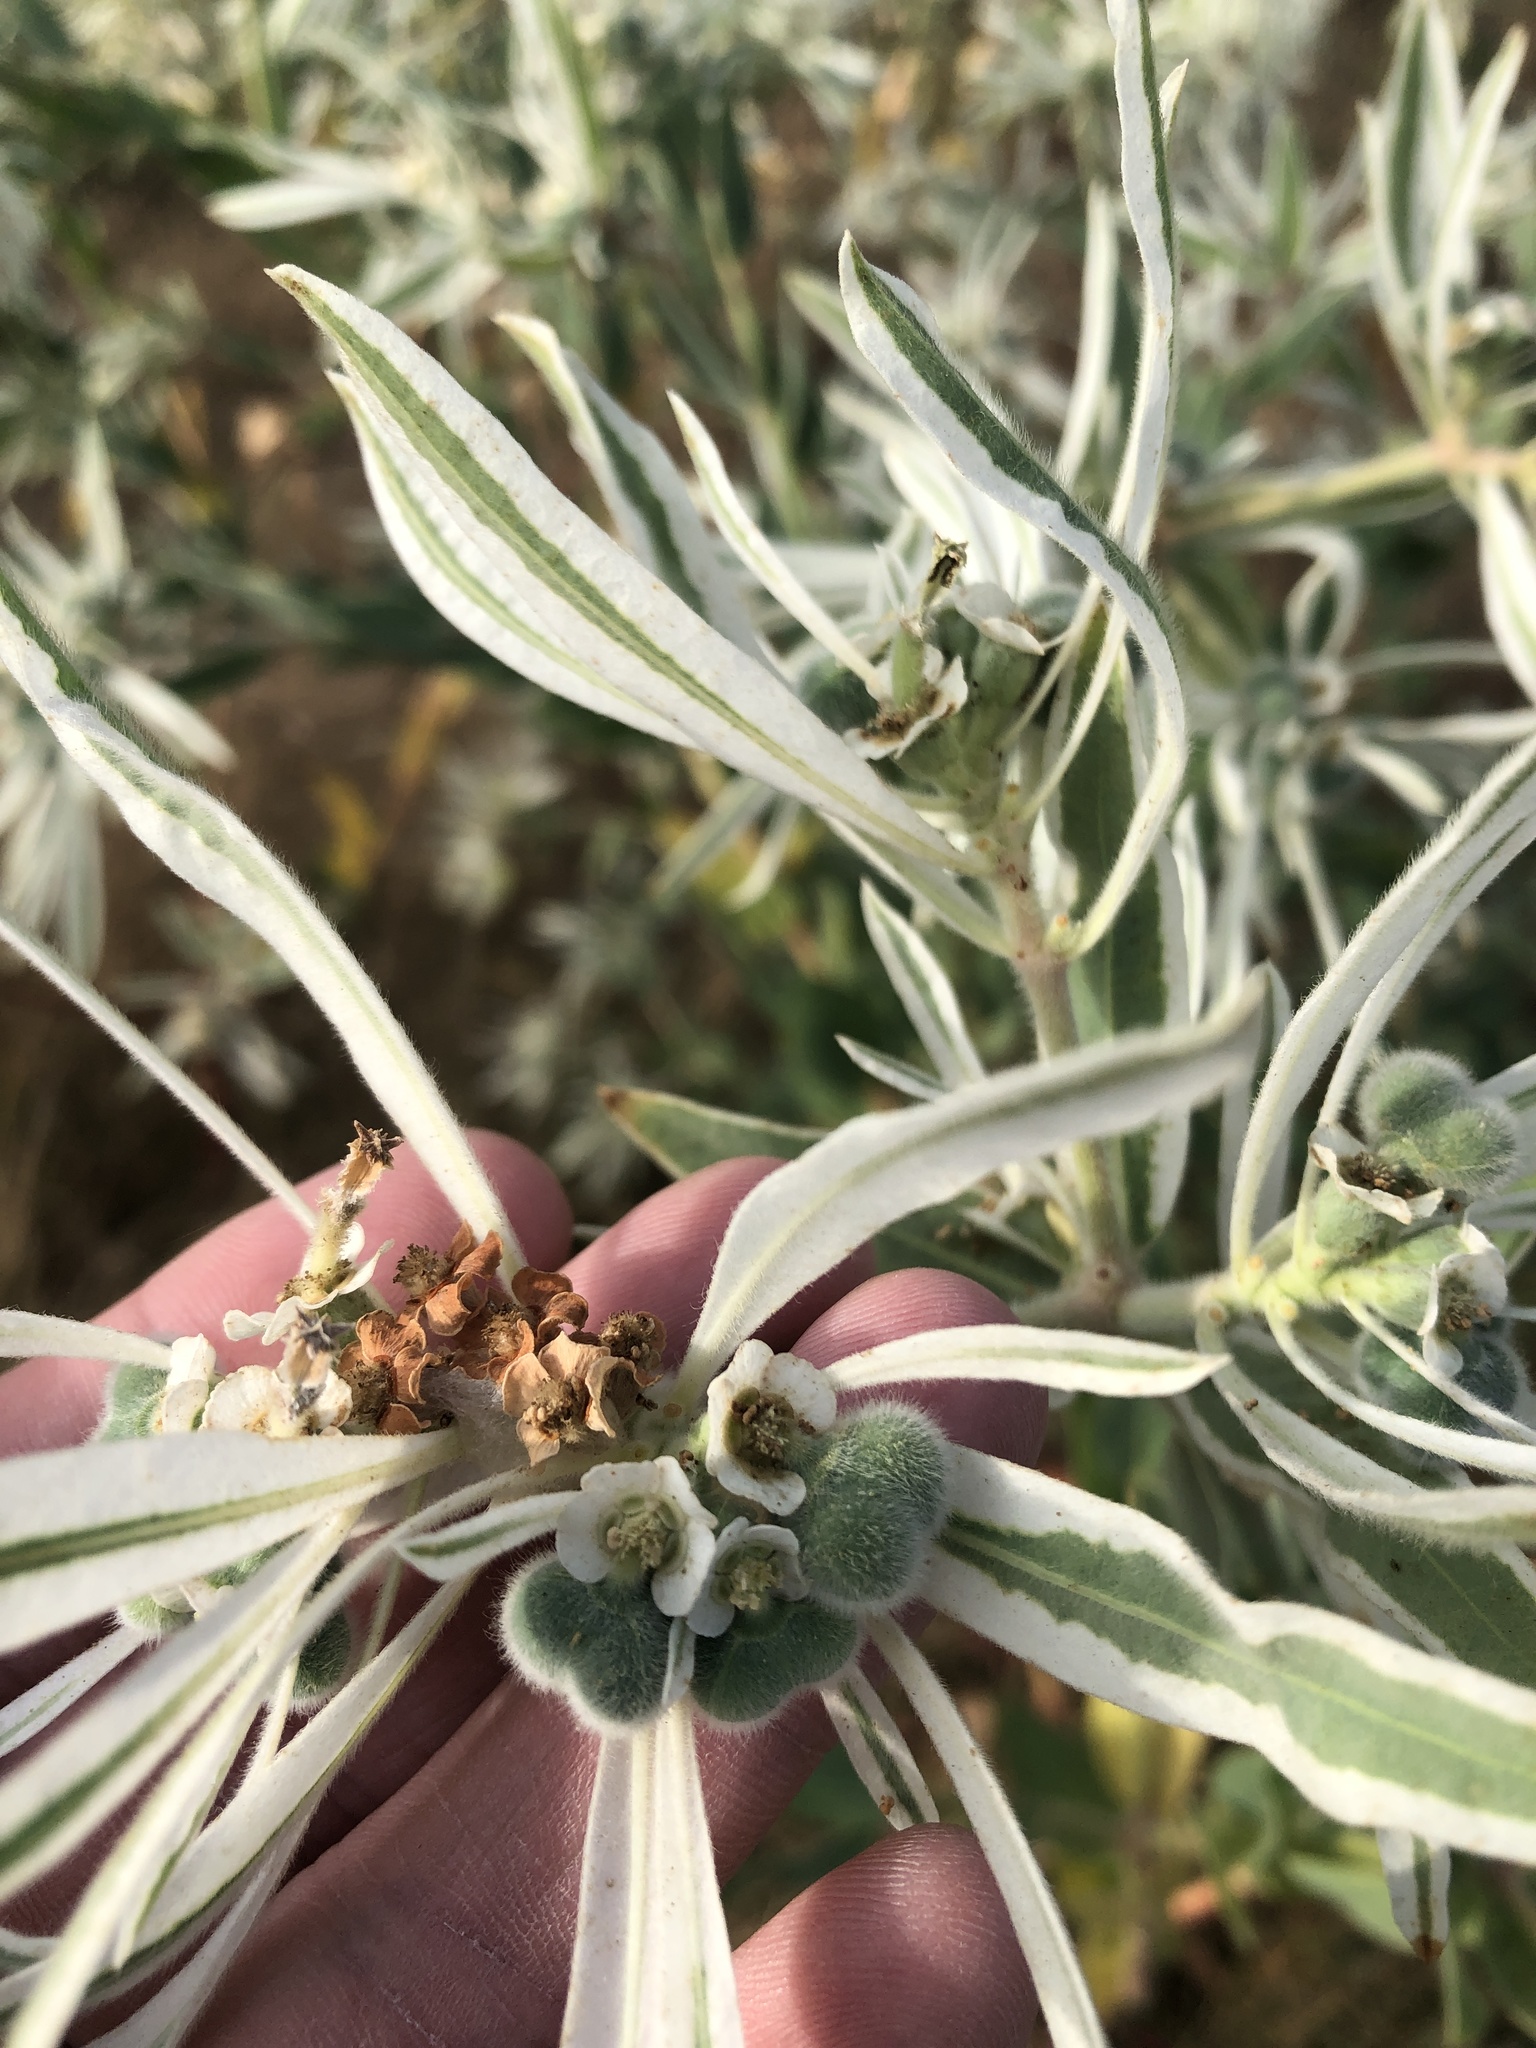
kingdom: Plantae
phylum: Tracheophyta
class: Magnoliopsida
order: Malpighiales
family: Euphorbiaceae
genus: Euphorbia
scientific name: Euphorbia bicolor
